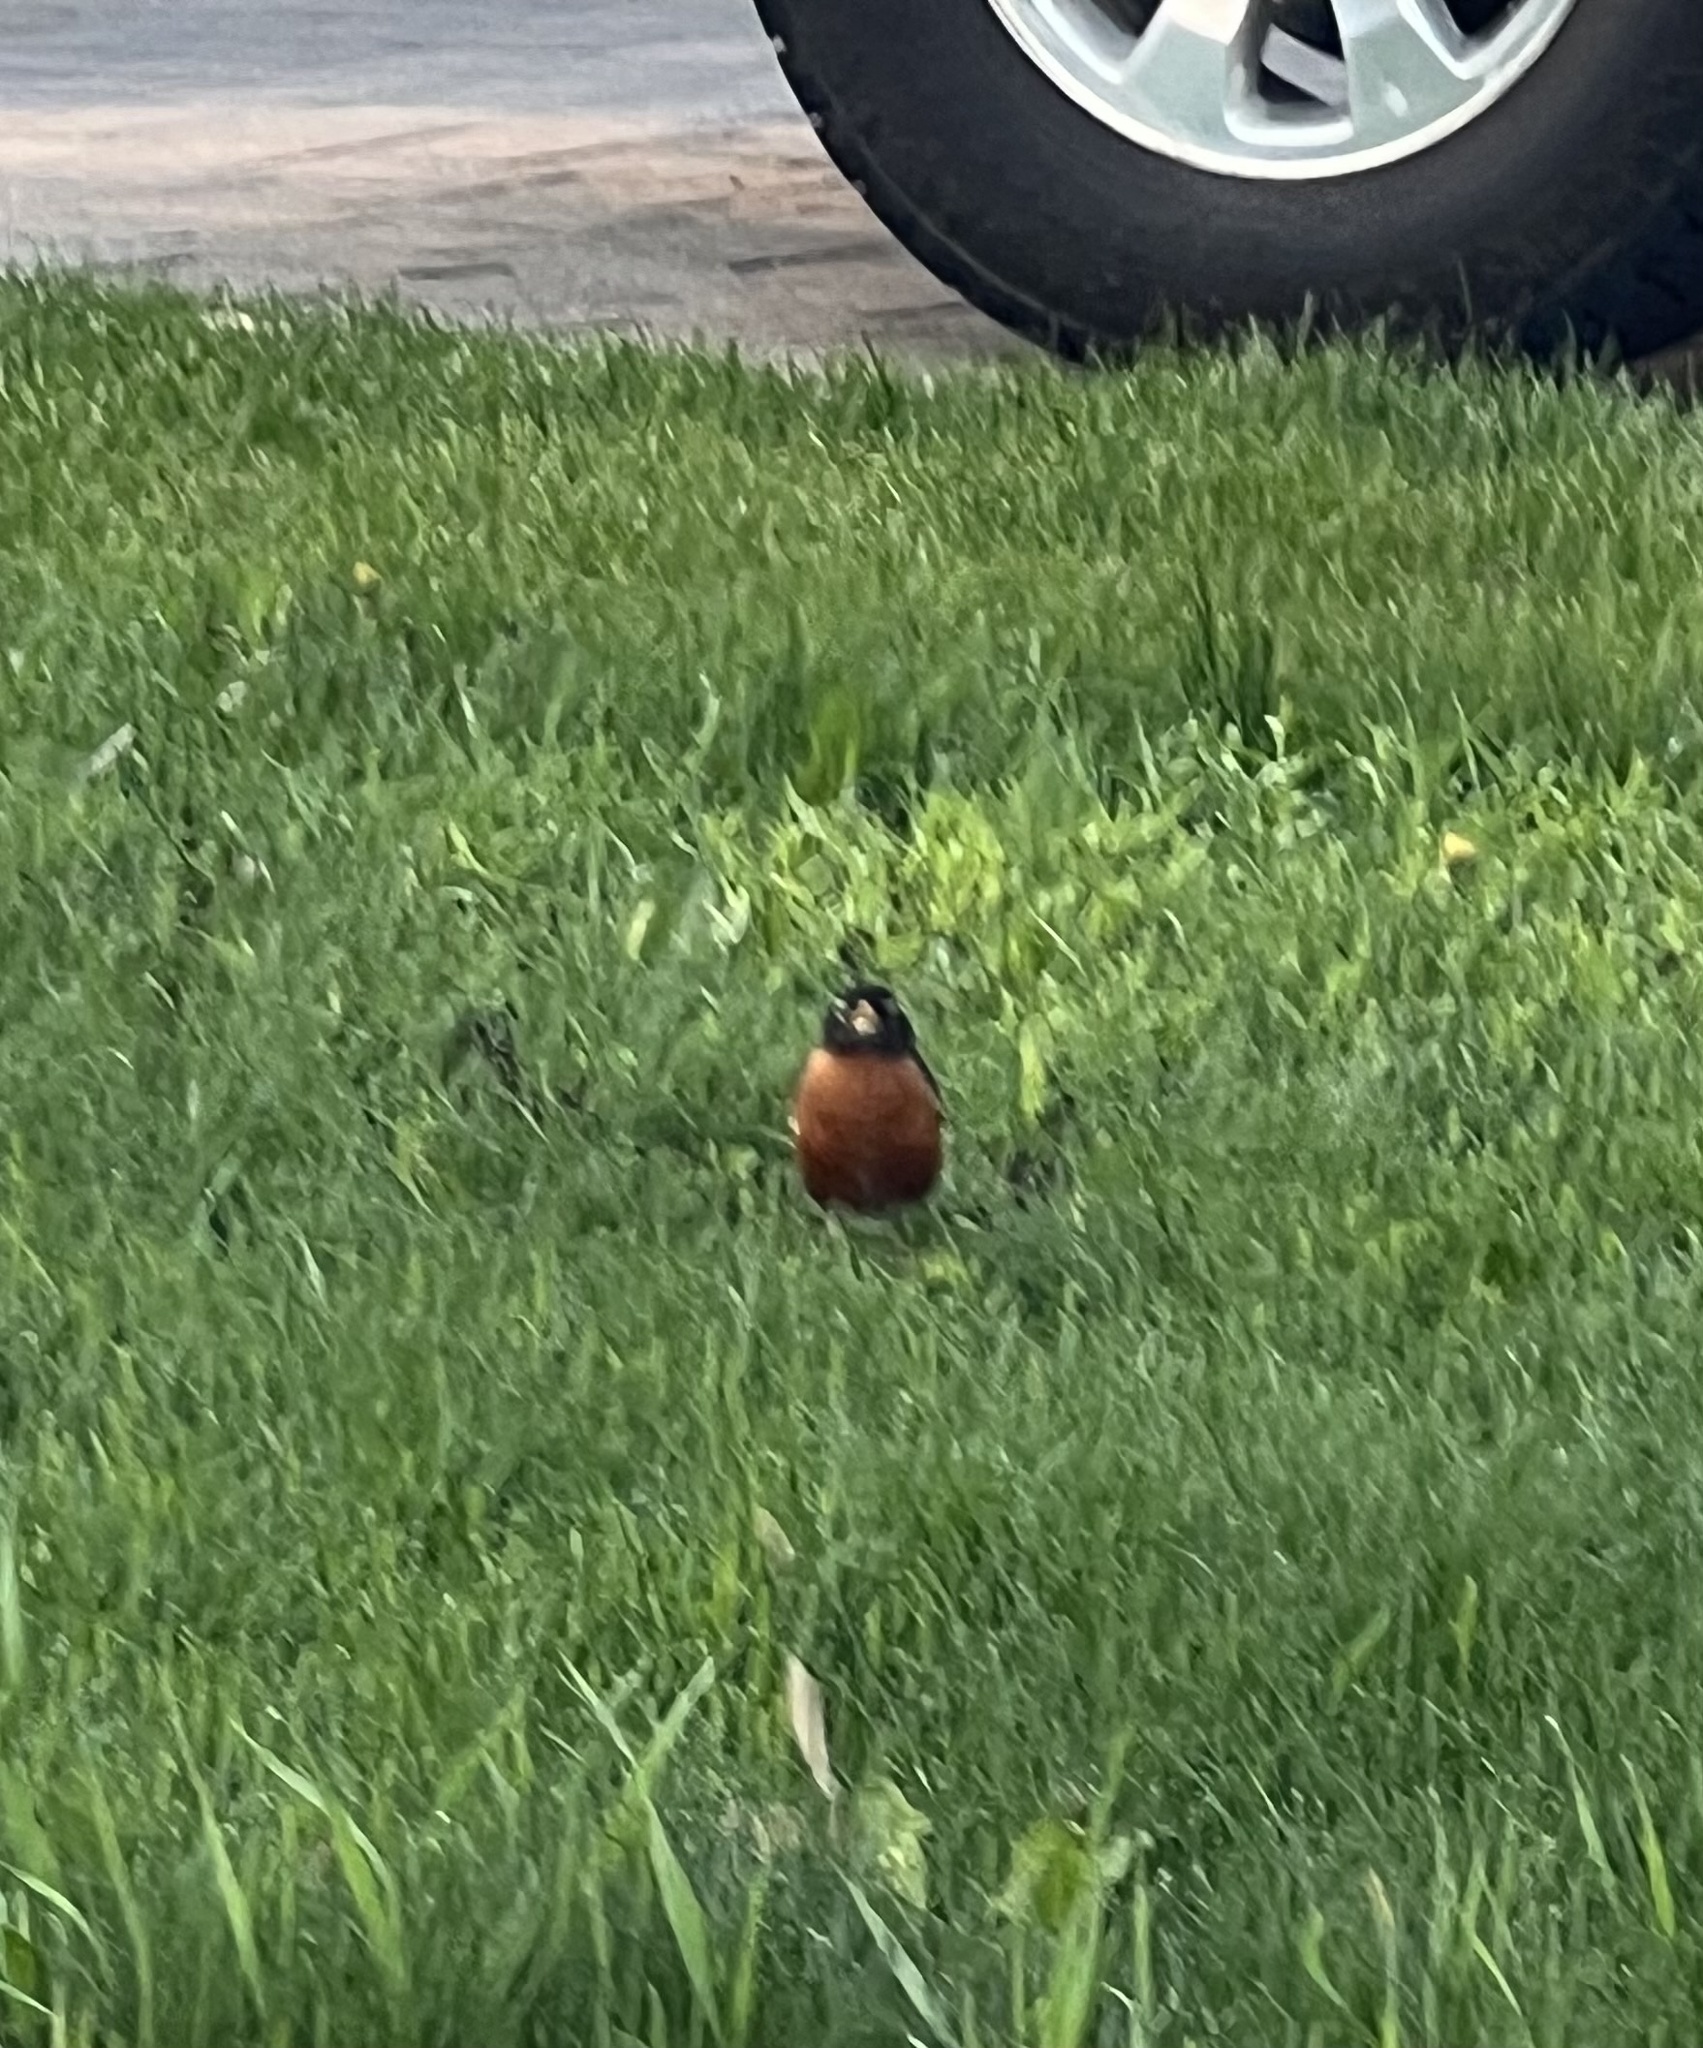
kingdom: Animalia
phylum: Chordata
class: Aves
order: Passeriformes
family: Turdidae
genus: Turdus
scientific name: Turdus migratorius
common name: American robin
